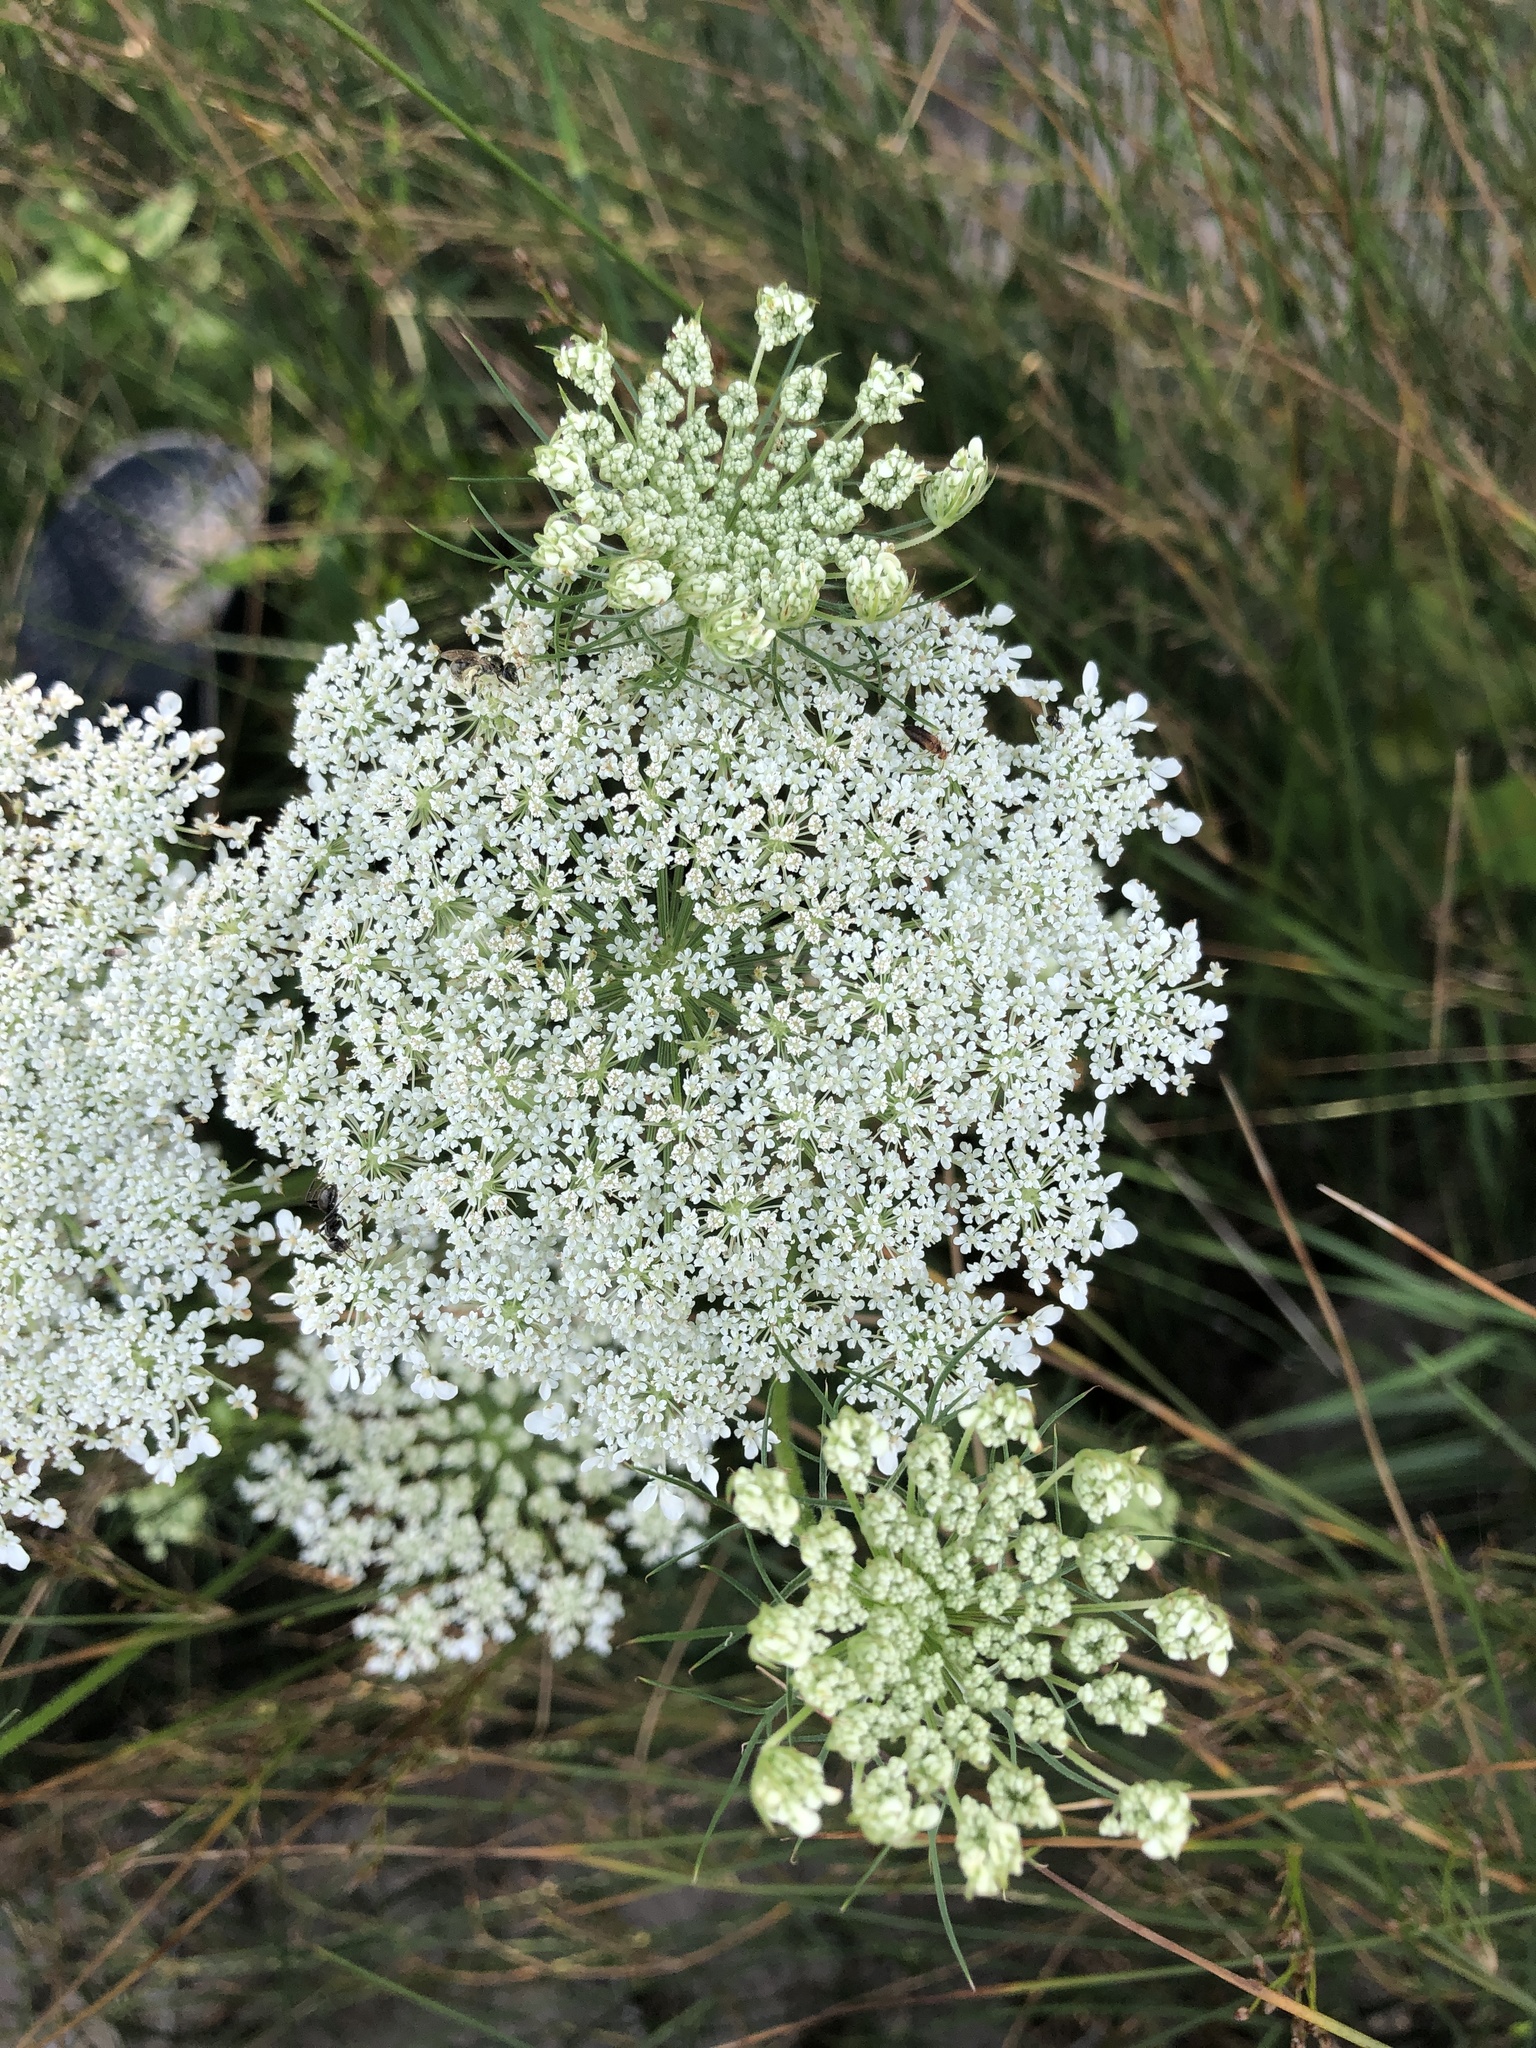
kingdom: Plantae
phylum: Tracheophyta
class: Magnoliopsida
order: Apiales
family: Apiaceae
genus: Daucus
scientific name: Daucus carota
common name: Wild carrot
